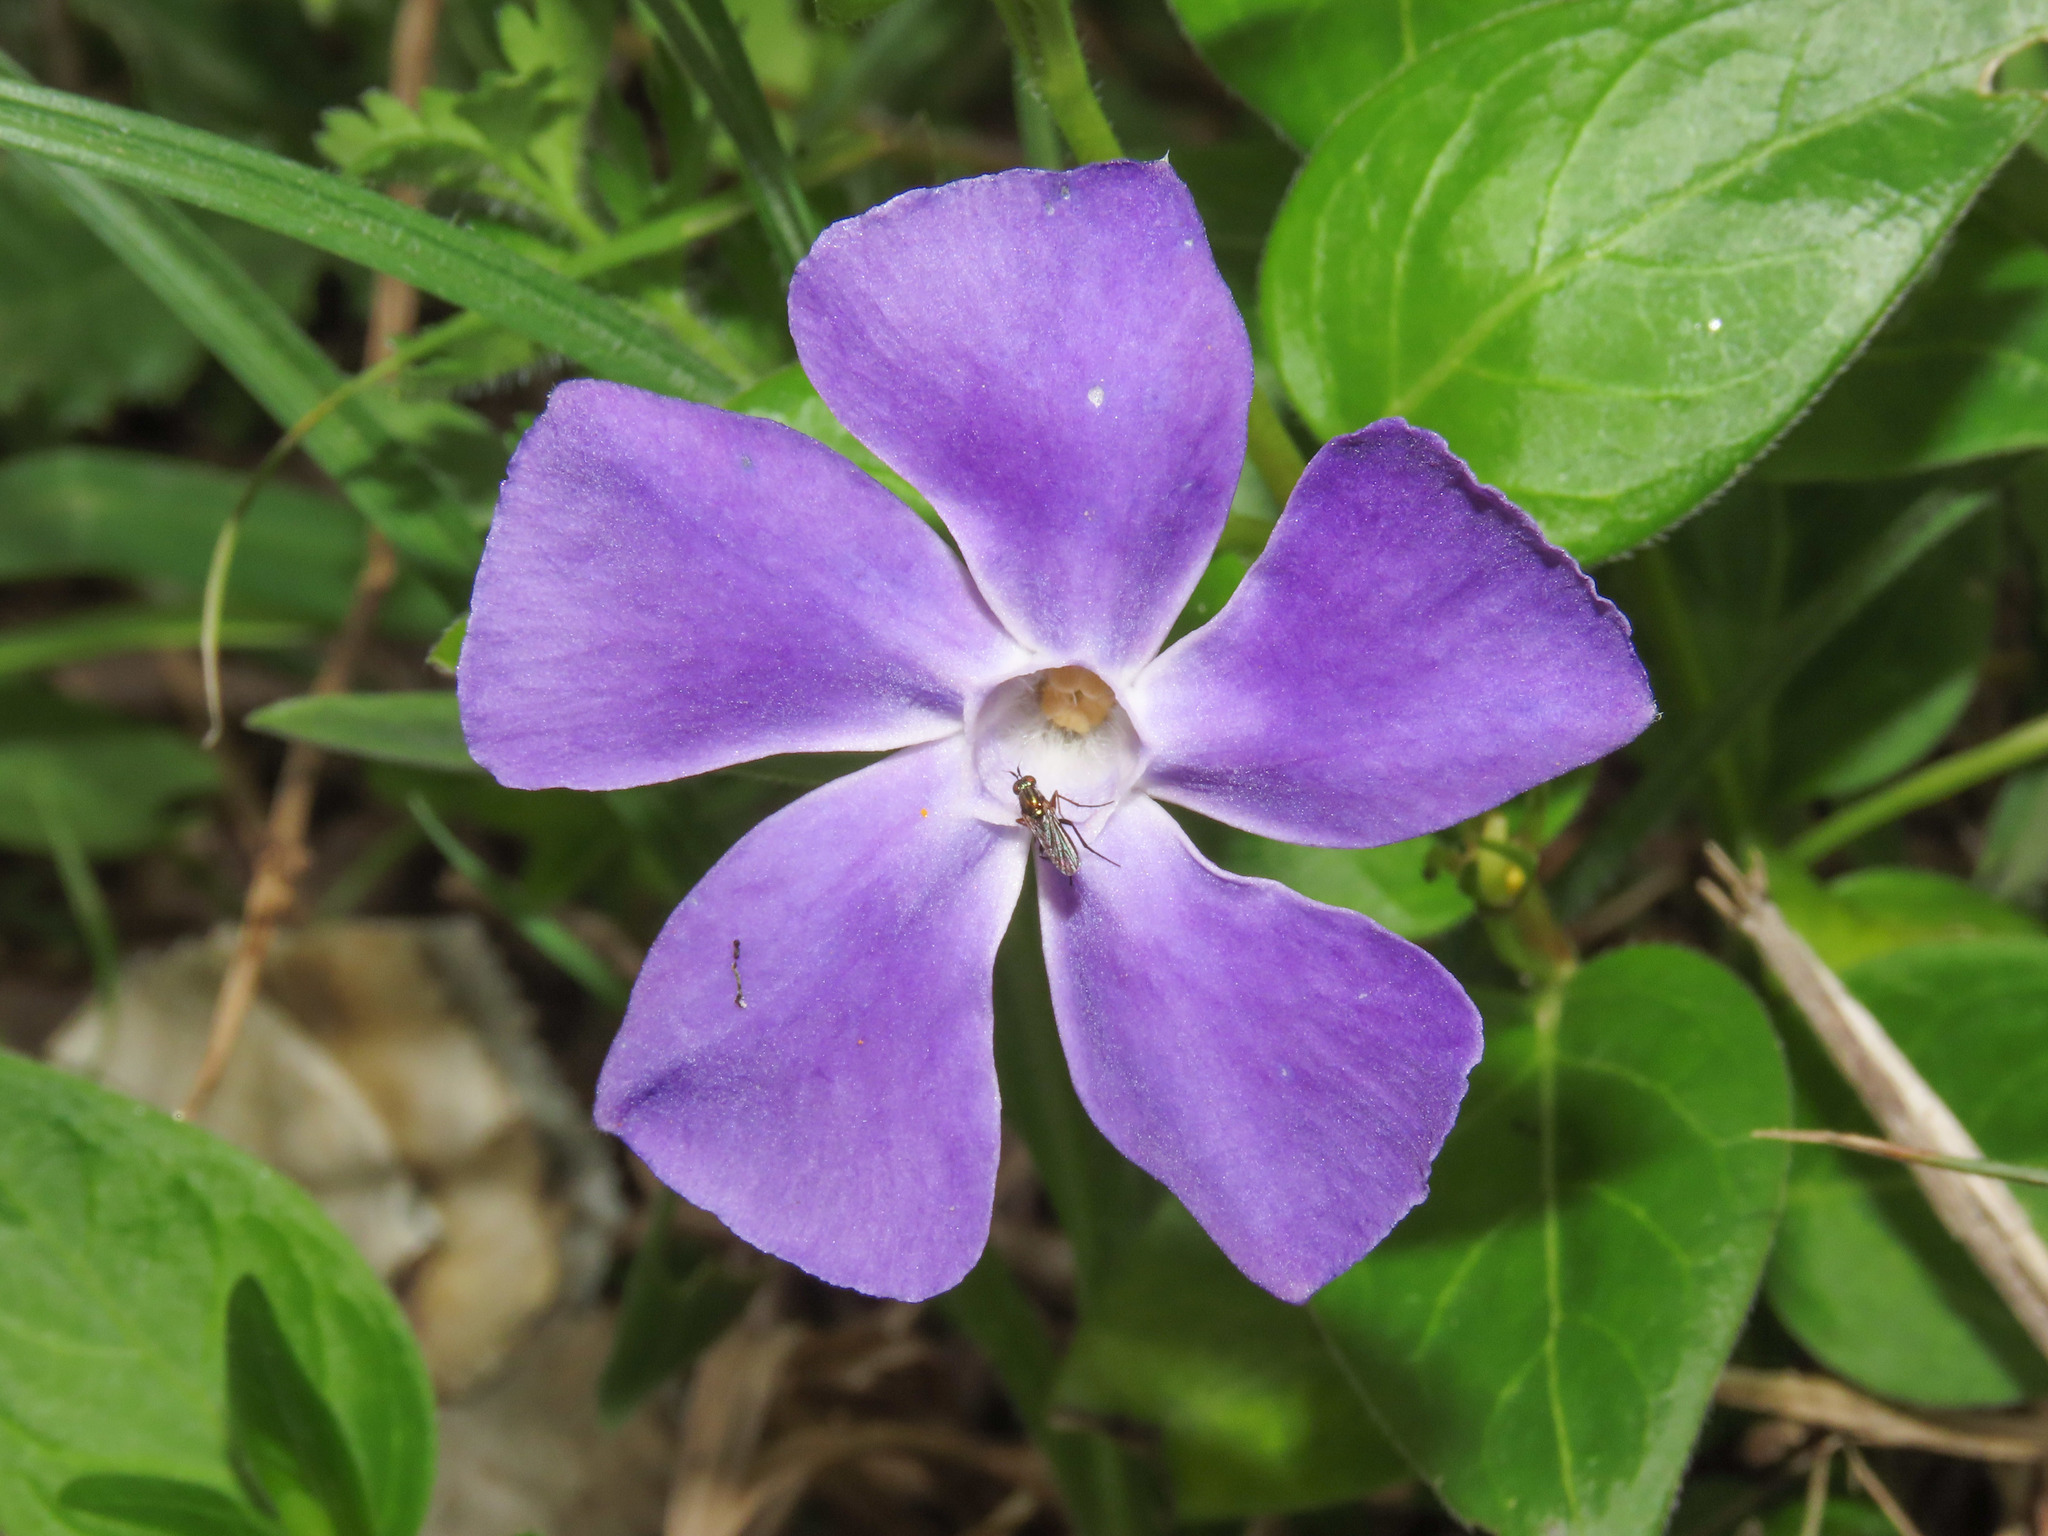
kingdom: Plantae
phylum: Tracheophyta
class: Magnoliopsida
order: Gentianales
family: Apocynaceae
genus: Vinca
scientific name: Vinca major
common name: Greater periwinkle
